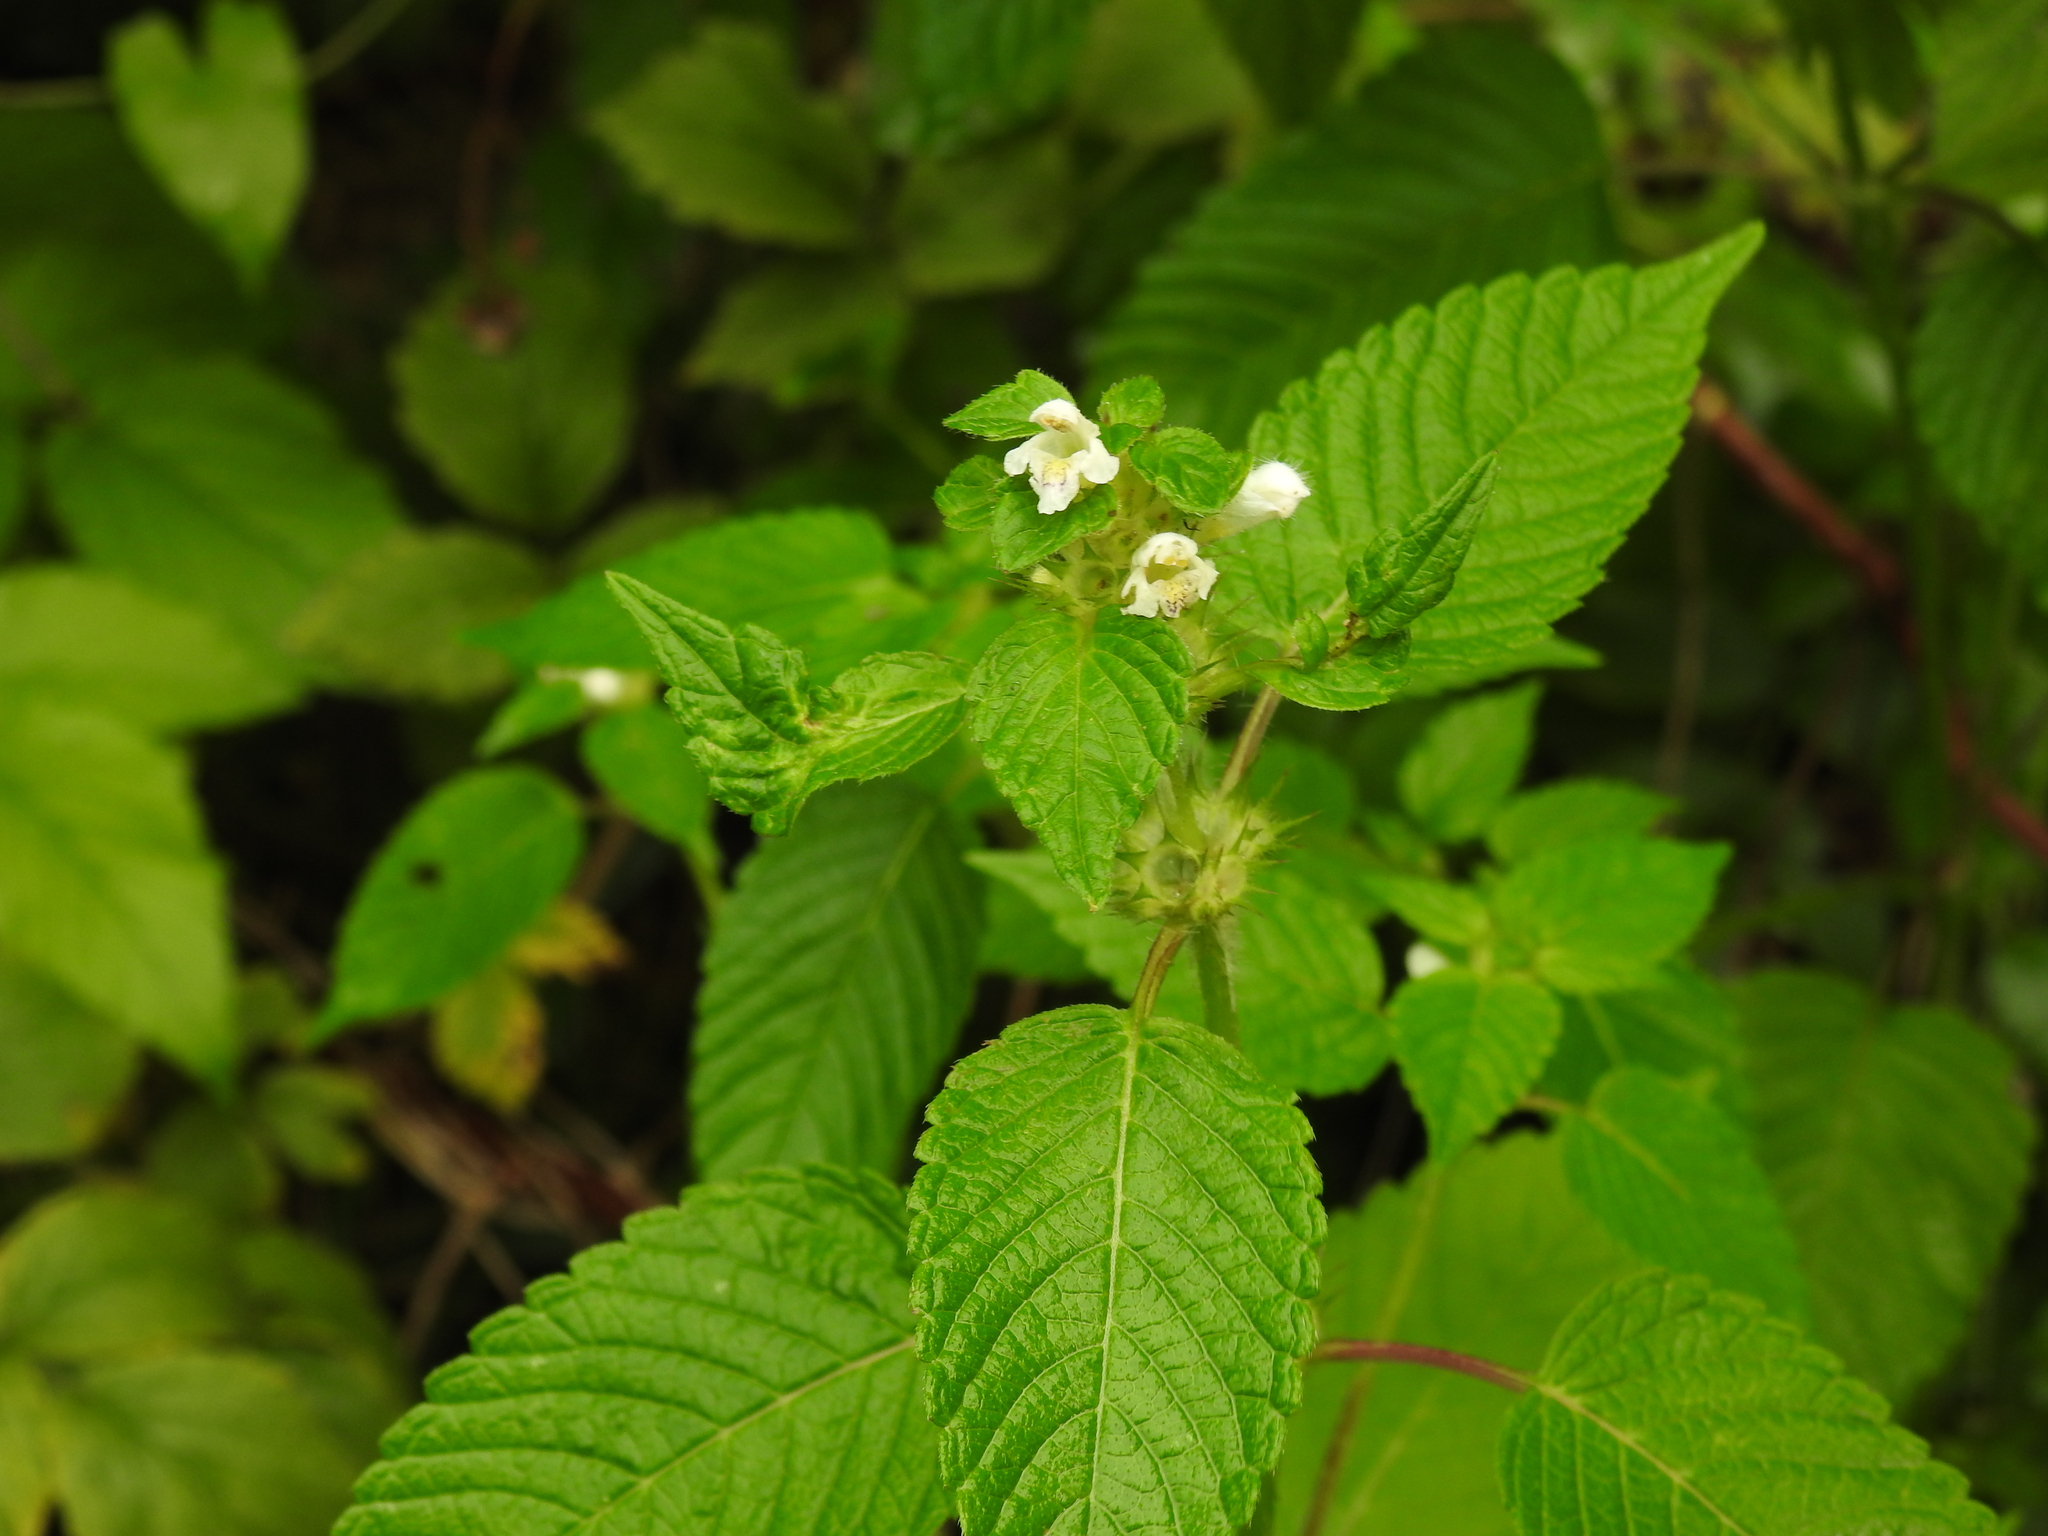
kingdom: Plantae
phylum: Tracheophyta
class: Magnoliopsida
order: Lamiales
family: Lamiaceae
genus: Galeopsis
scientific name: Galeopsis tetrahit
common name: Common hemp-nettle
